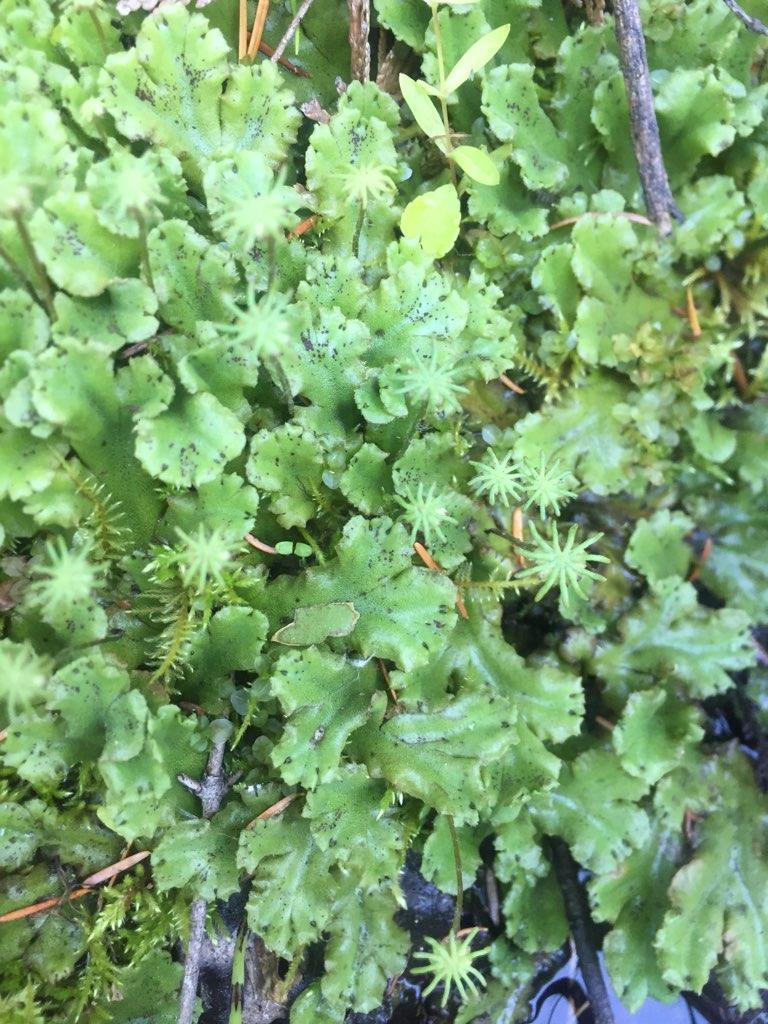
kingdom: Plantae
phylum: Marchantiophyta
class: Marchantiopsida
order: Marchantiales
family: Marchantiaceae
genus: Marchantia
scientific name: Marchantia polymorpha
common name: Common liverwort
